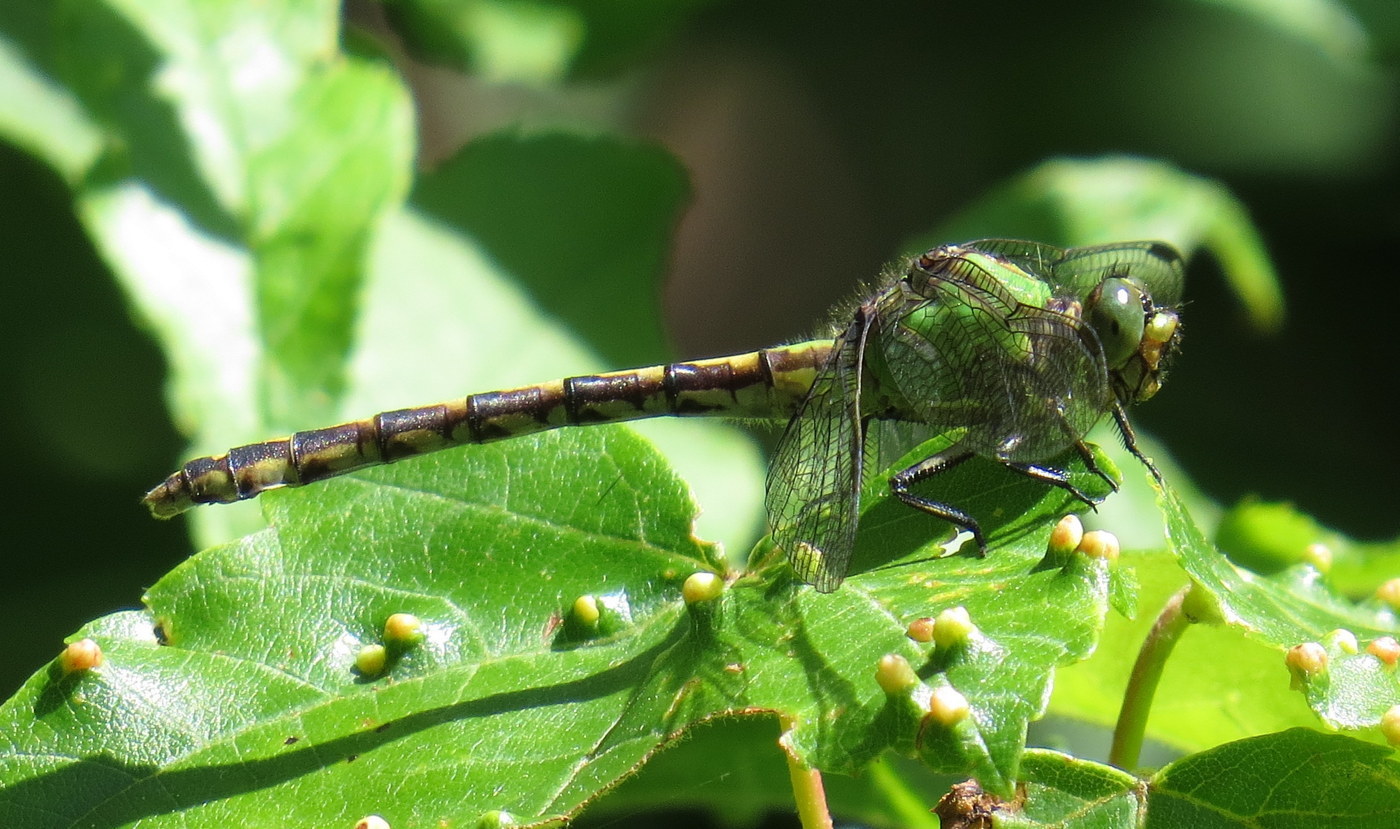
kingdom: Animalia
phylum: Arthropoda
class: Insecta
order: Odonata
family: Gomphidae
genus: Ophiogomphus
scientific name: Ophiogomphus aspersus
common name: Brook snaketail
